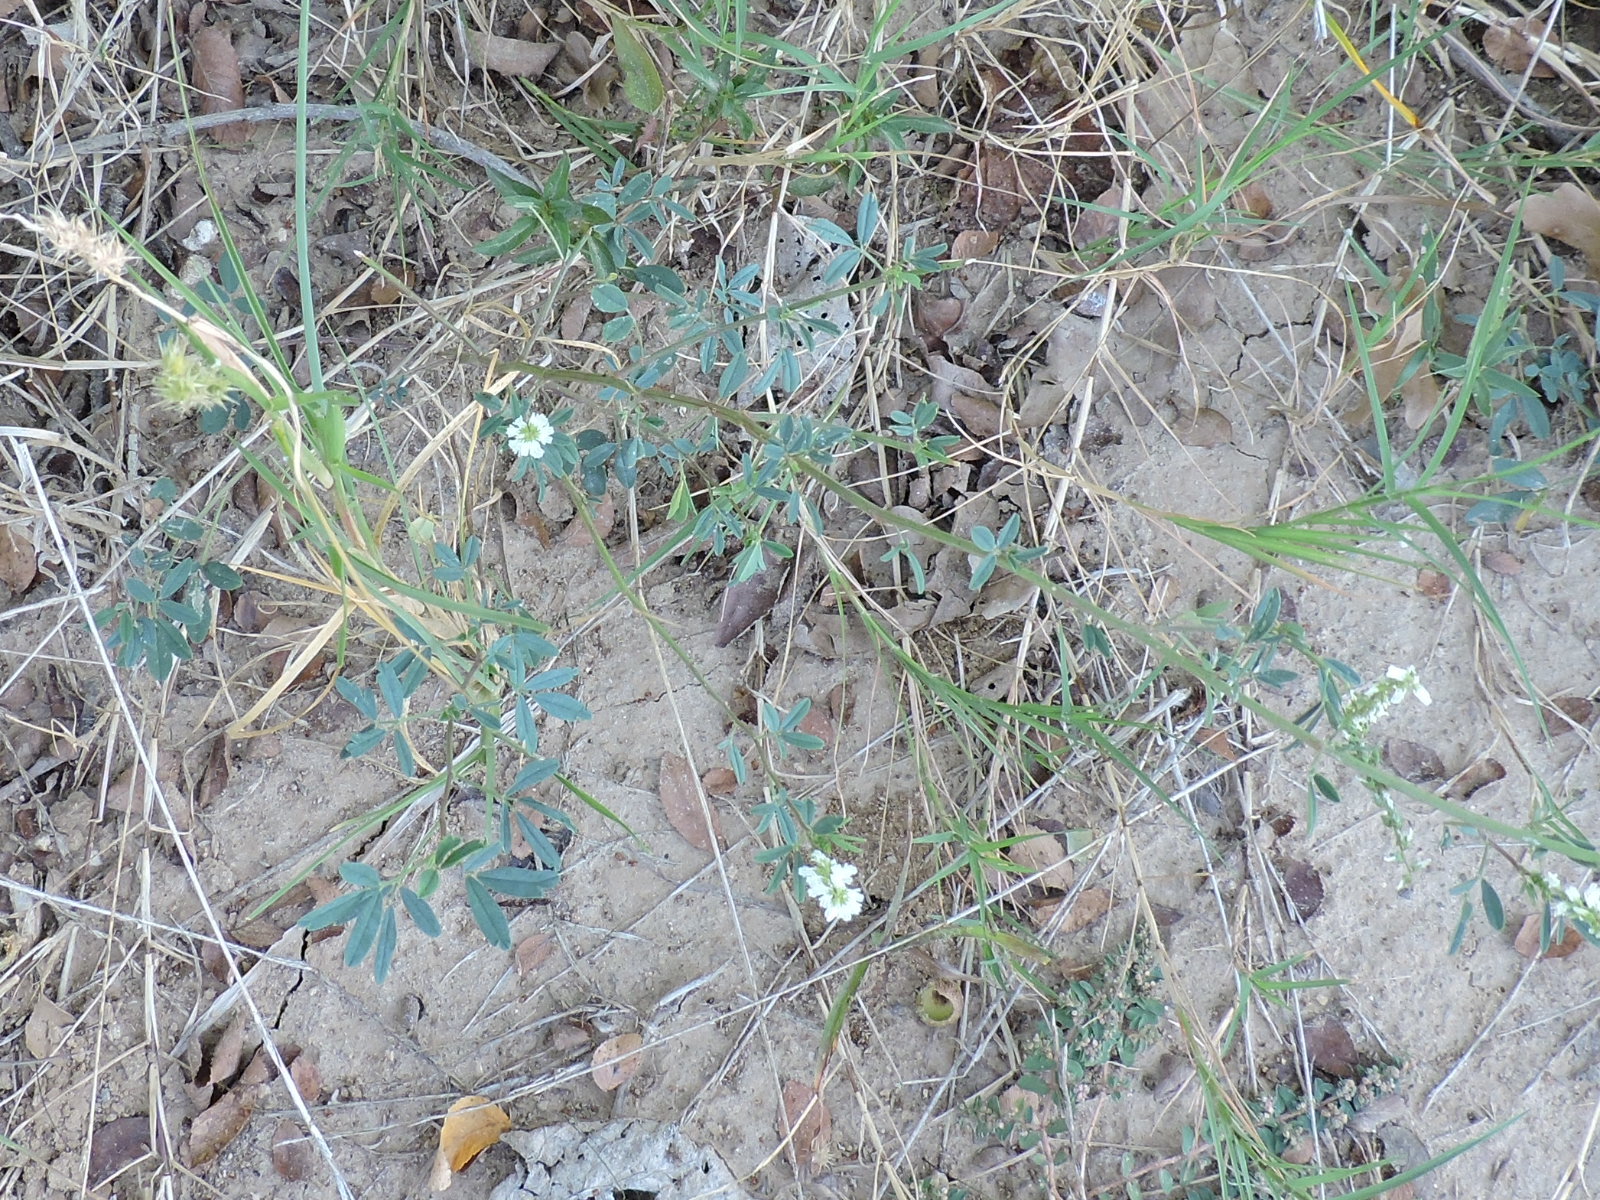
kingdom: Plantae
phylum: Tracheophyta
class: Magnoliopsida
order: Fabales
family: Fabaceae
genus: Melilotus
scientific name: Melilotus albus
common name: White melilot
